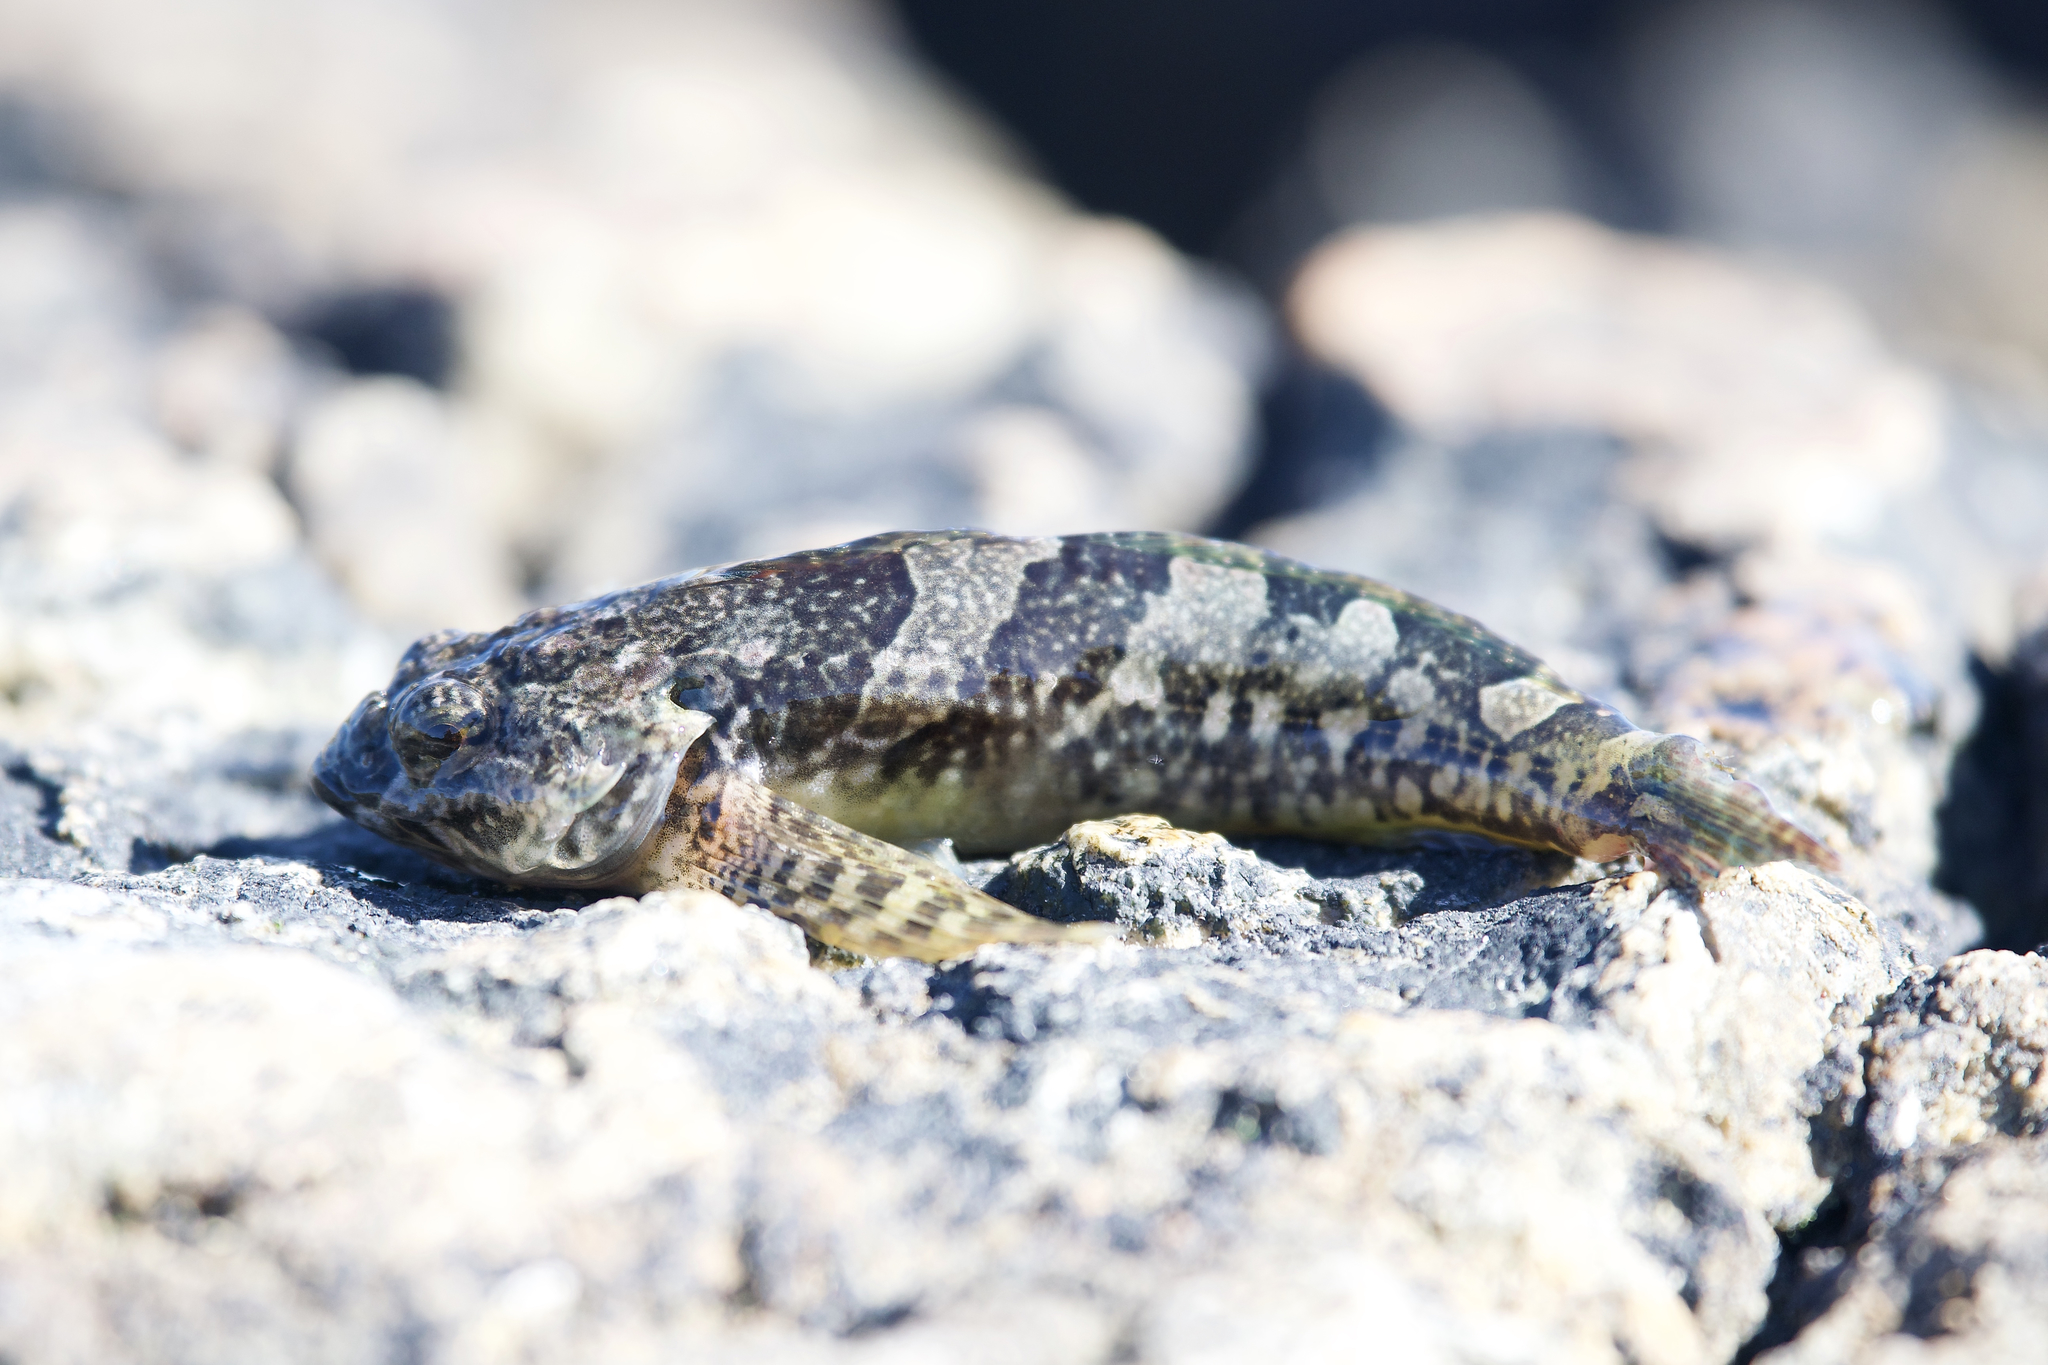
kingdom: Animalia
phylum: Chordata
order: Scorpaeniformes
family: Cottidae
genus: Oligocottus
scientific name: Oligocottus maculosus
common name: Tidepool sculpin
